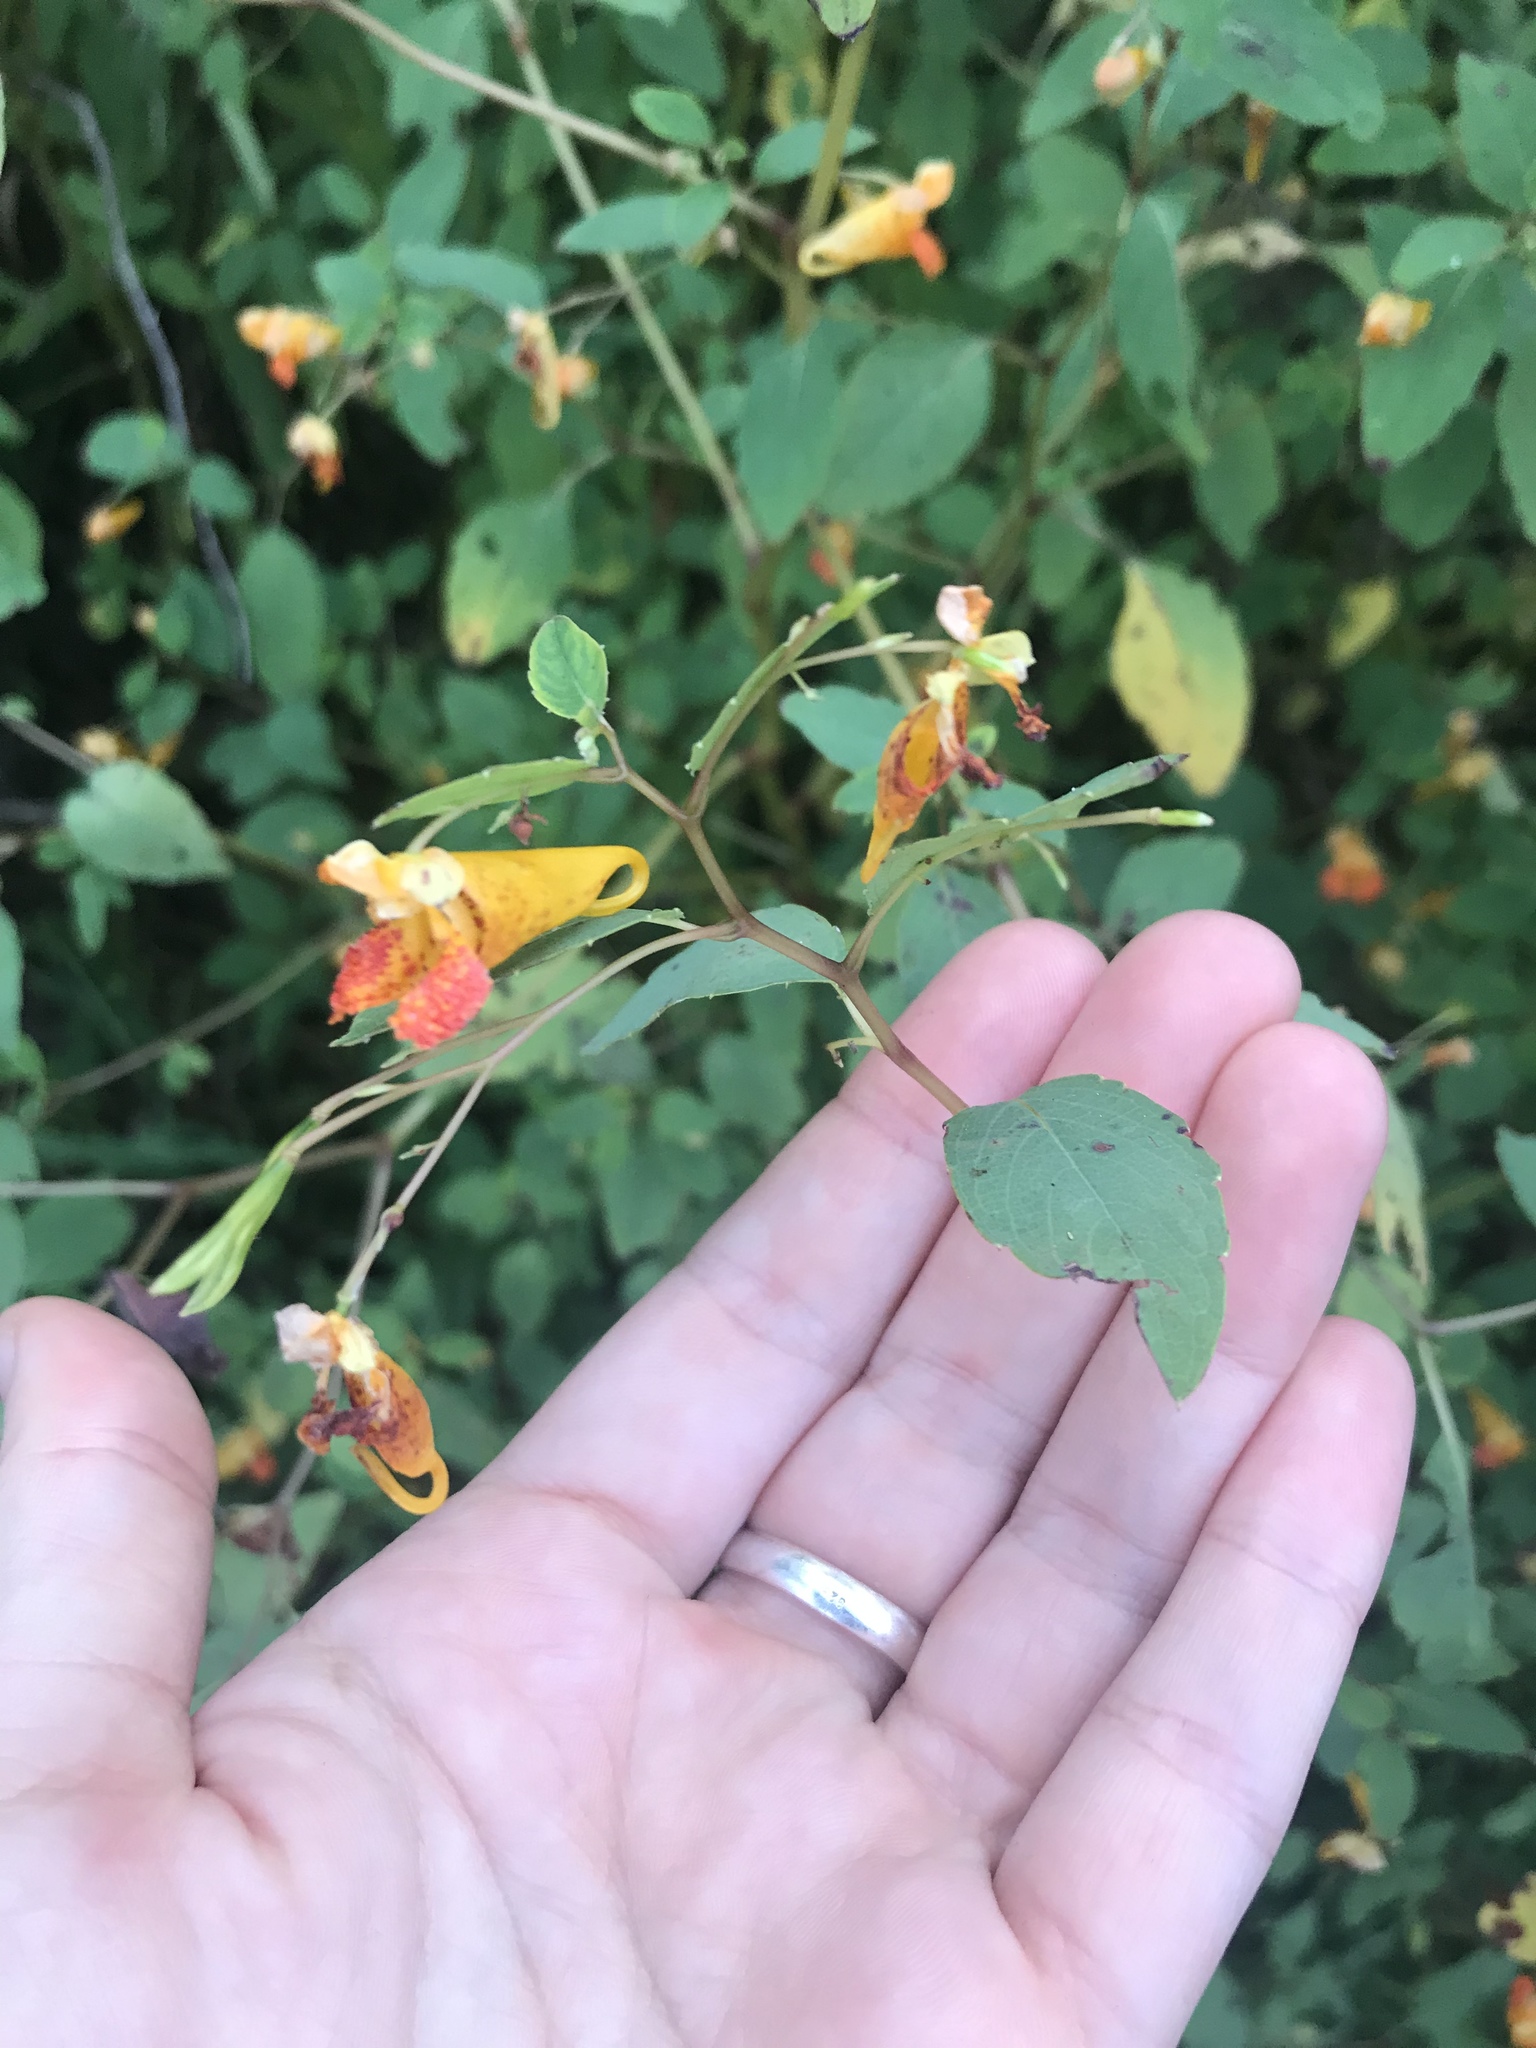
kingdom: Plantae
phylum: Tracheophyta
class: Magnoliopsida
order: Ericales
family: Balsaminaceae
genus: Impatiens
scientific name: Impatiens capensis
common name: Orange balsam
